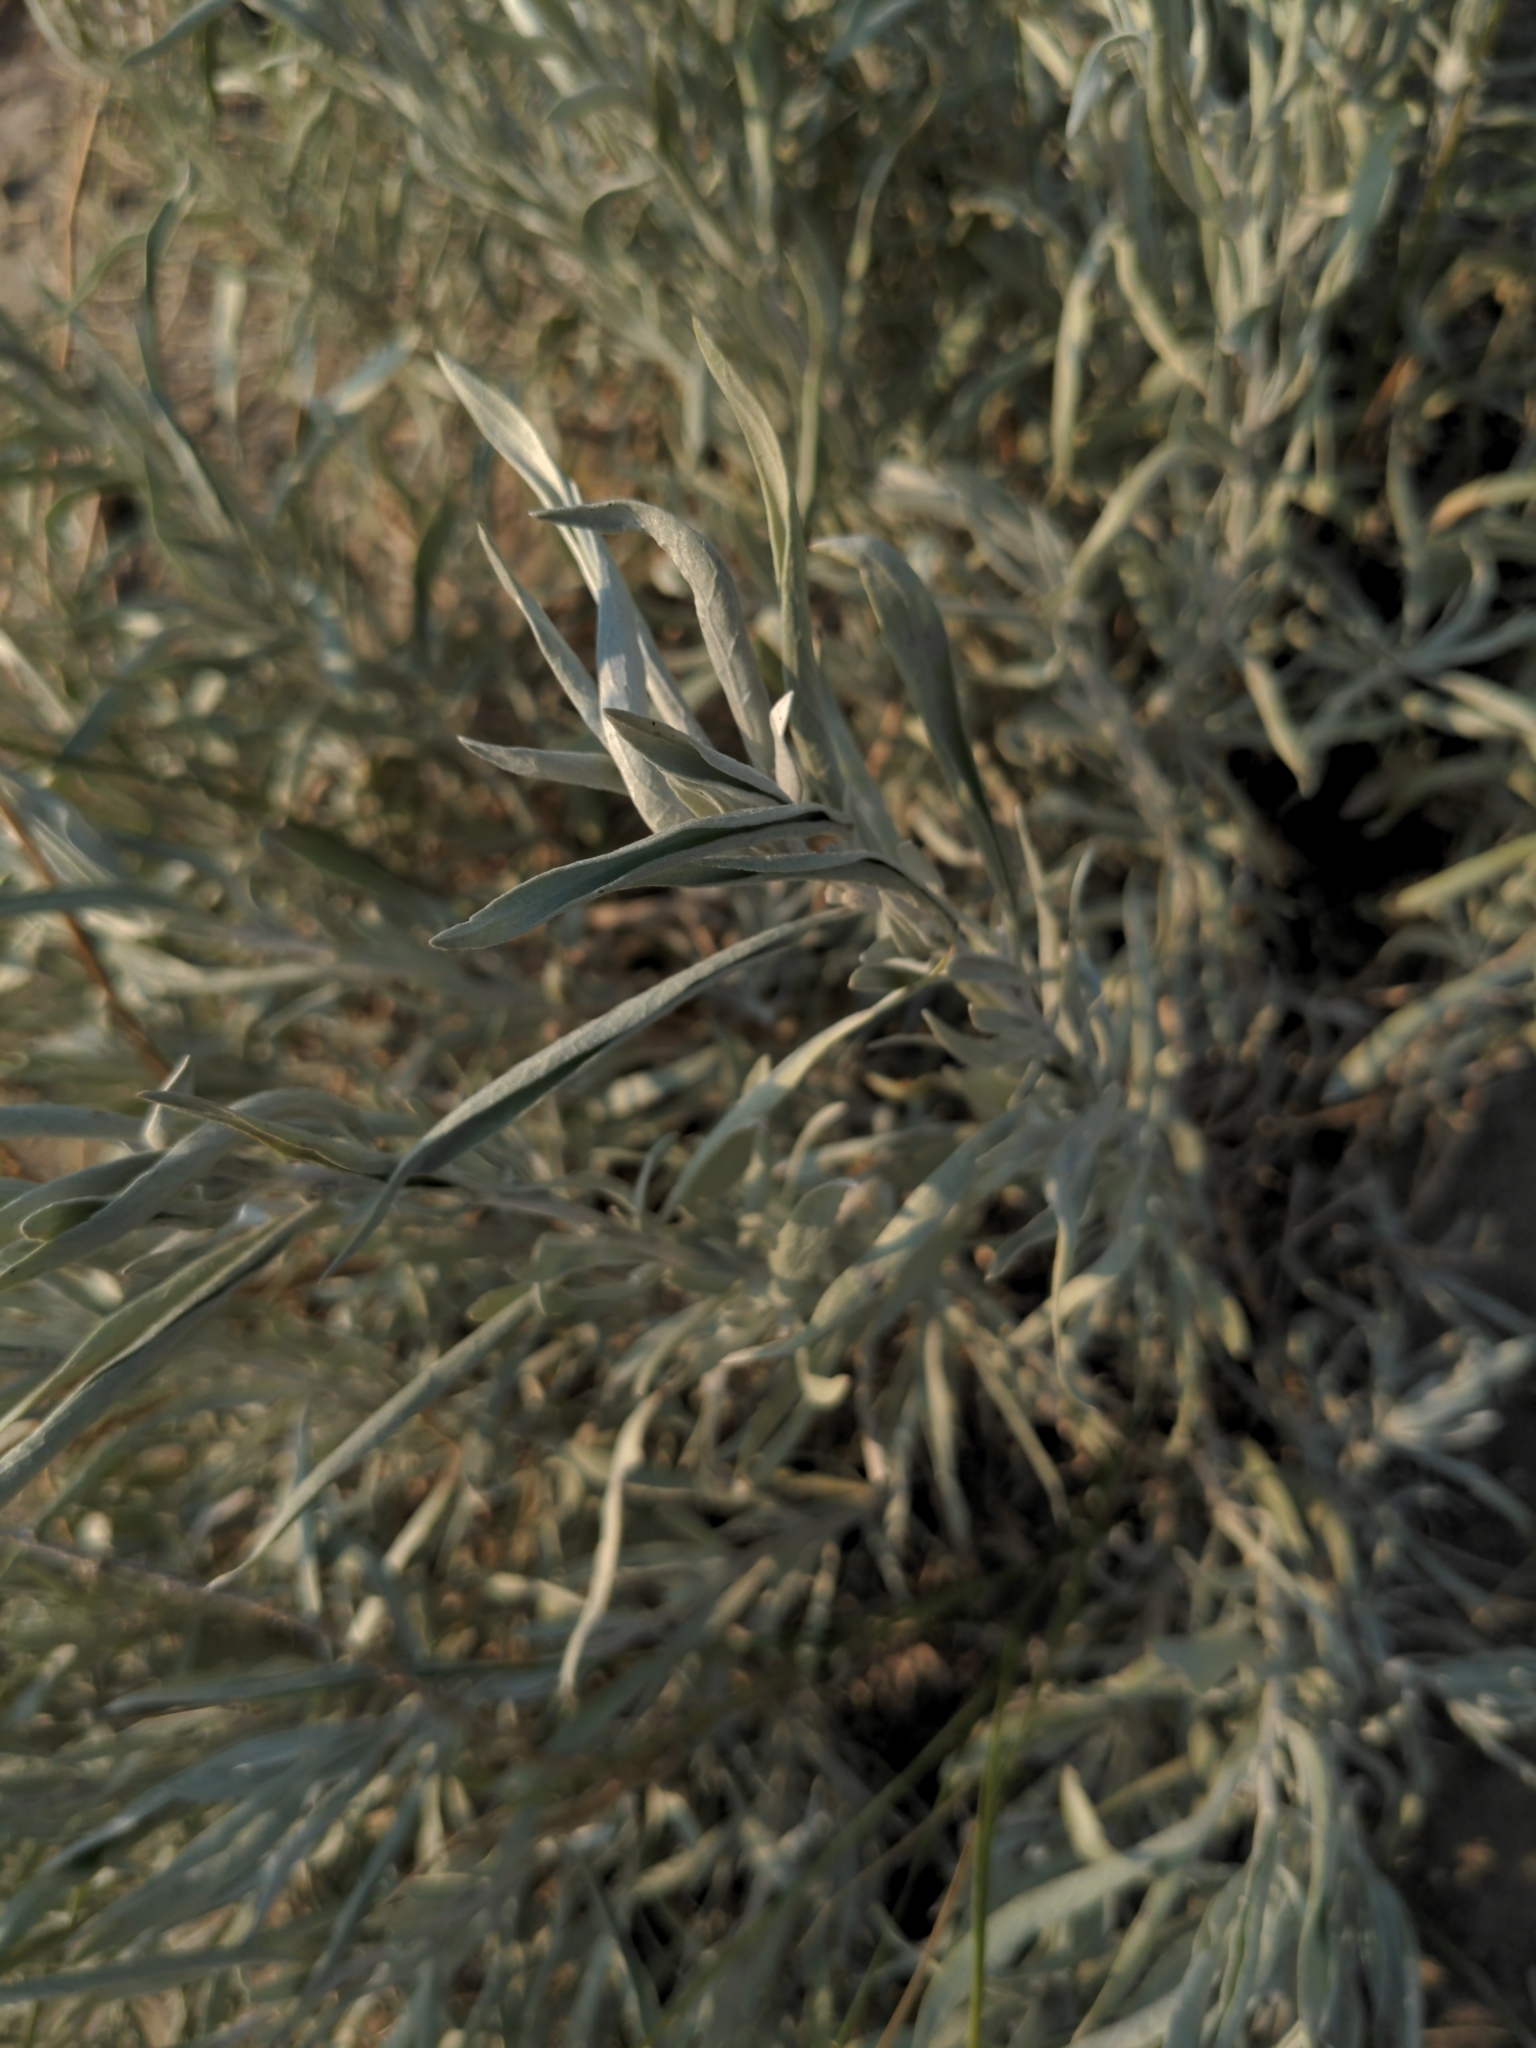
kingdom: Plantae
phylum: Tracheophyta
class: Magnoliopsida
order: Asterales
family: Asteraceae
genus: Artemisia
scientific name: Artemisia cana
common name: Silver sagebrush
